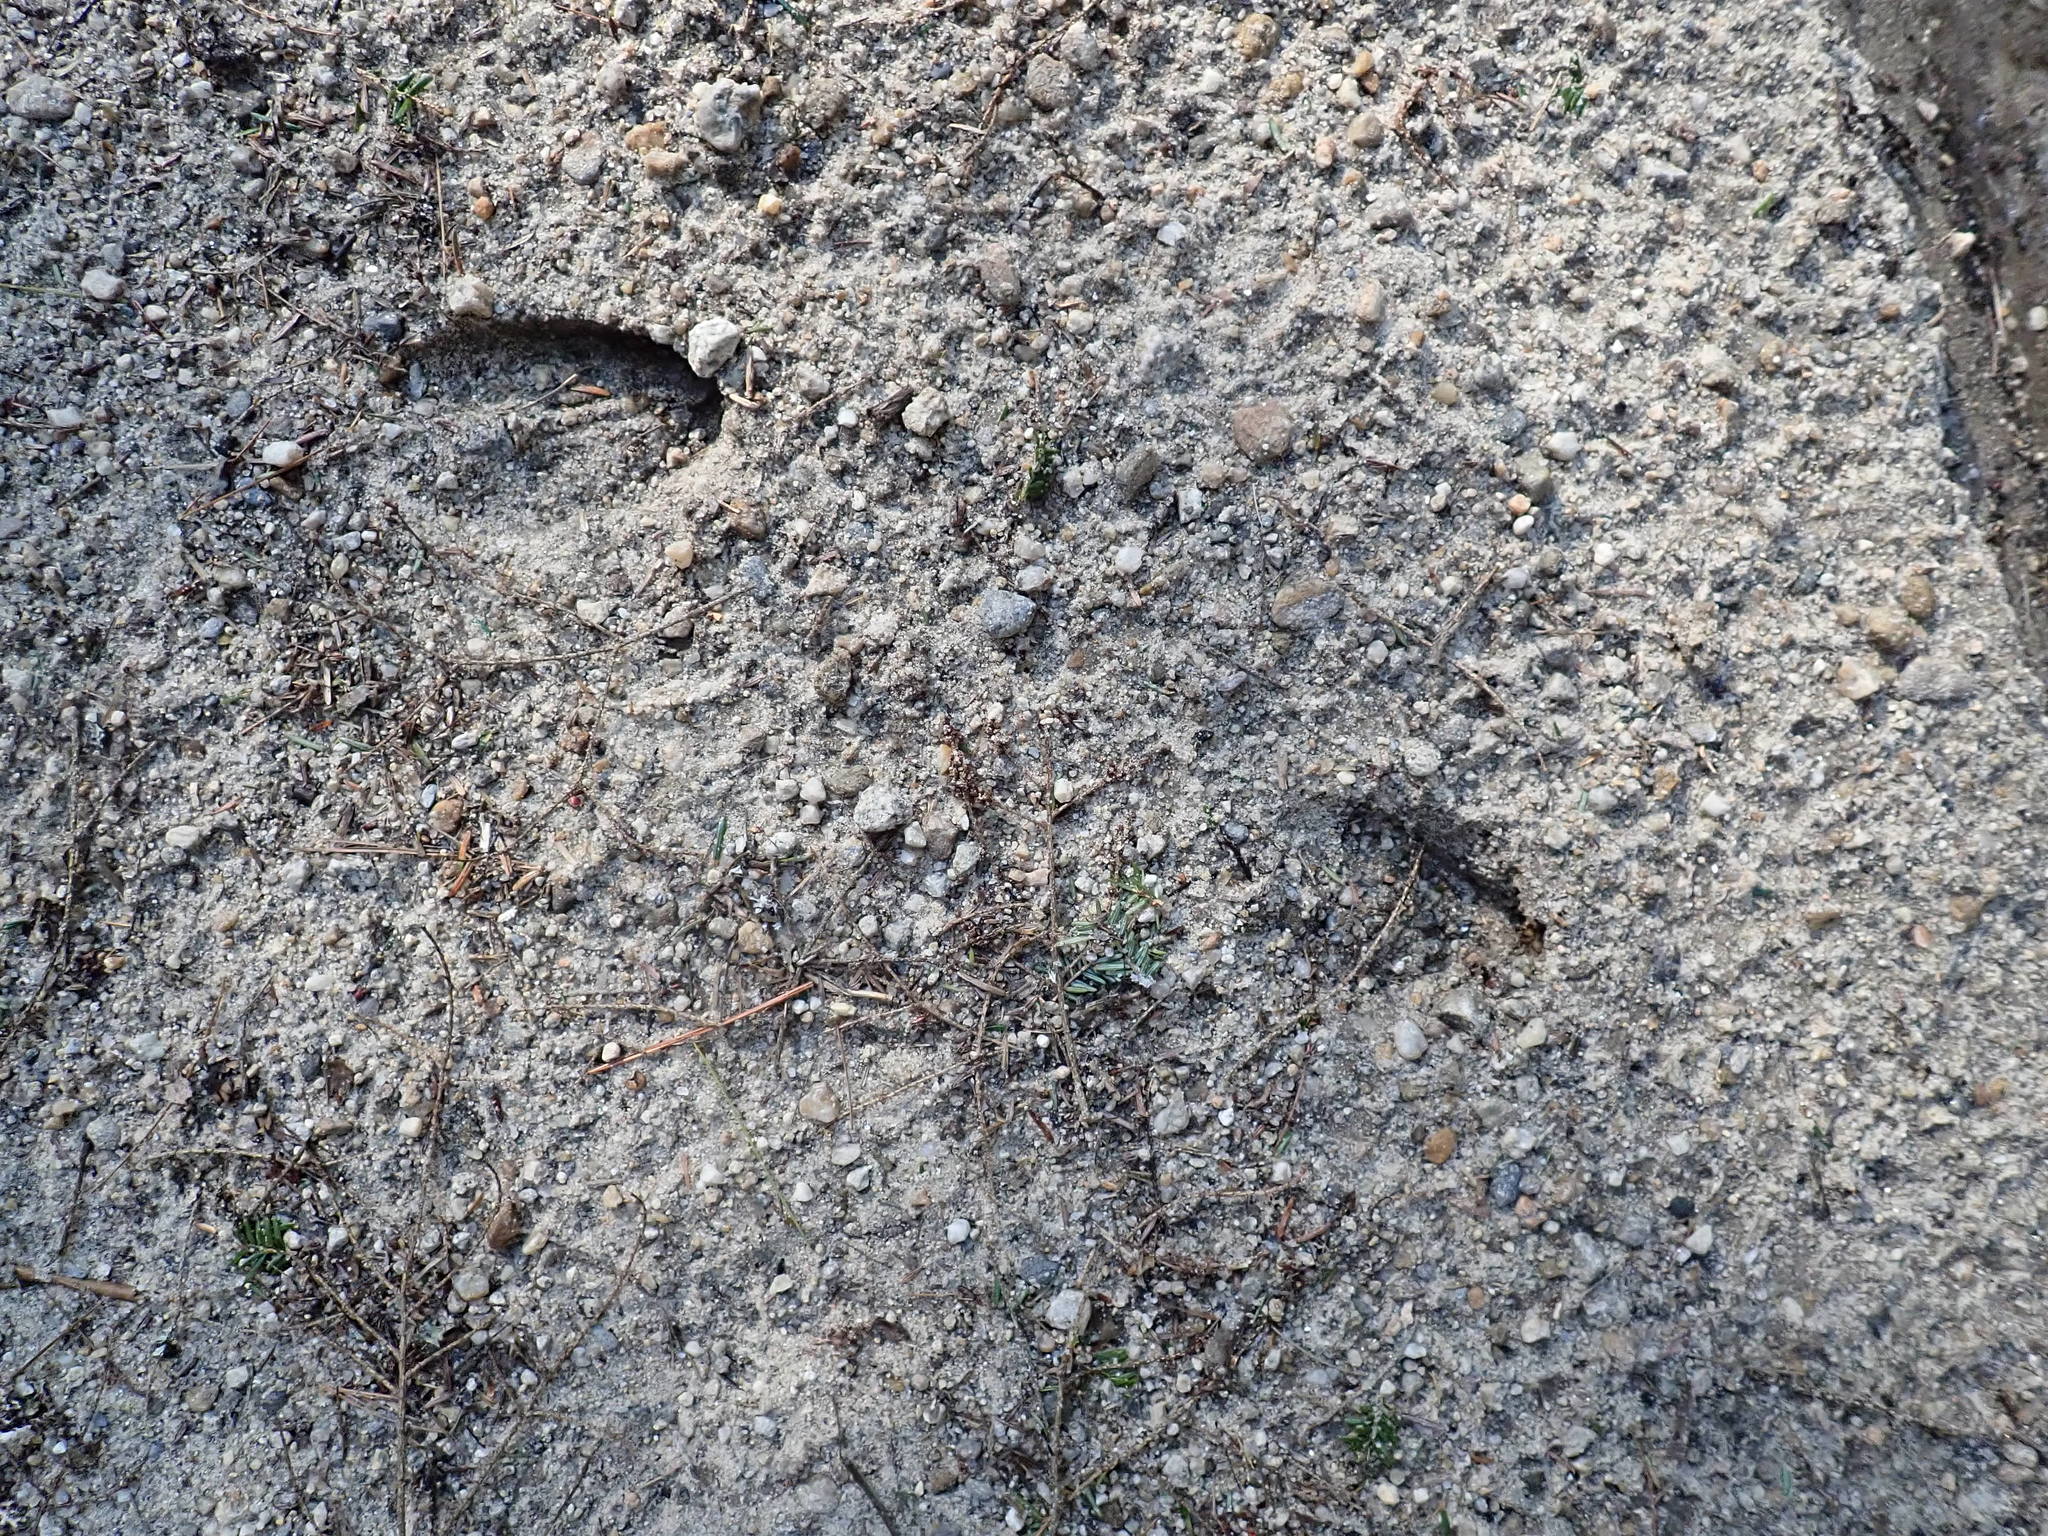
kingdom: Animalia
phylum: Chordata
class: Mammalia
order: Artiodactyla
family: Cervidae
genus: Odocoileus
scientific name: Odocoileus virginianus
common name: White-tailed deer
